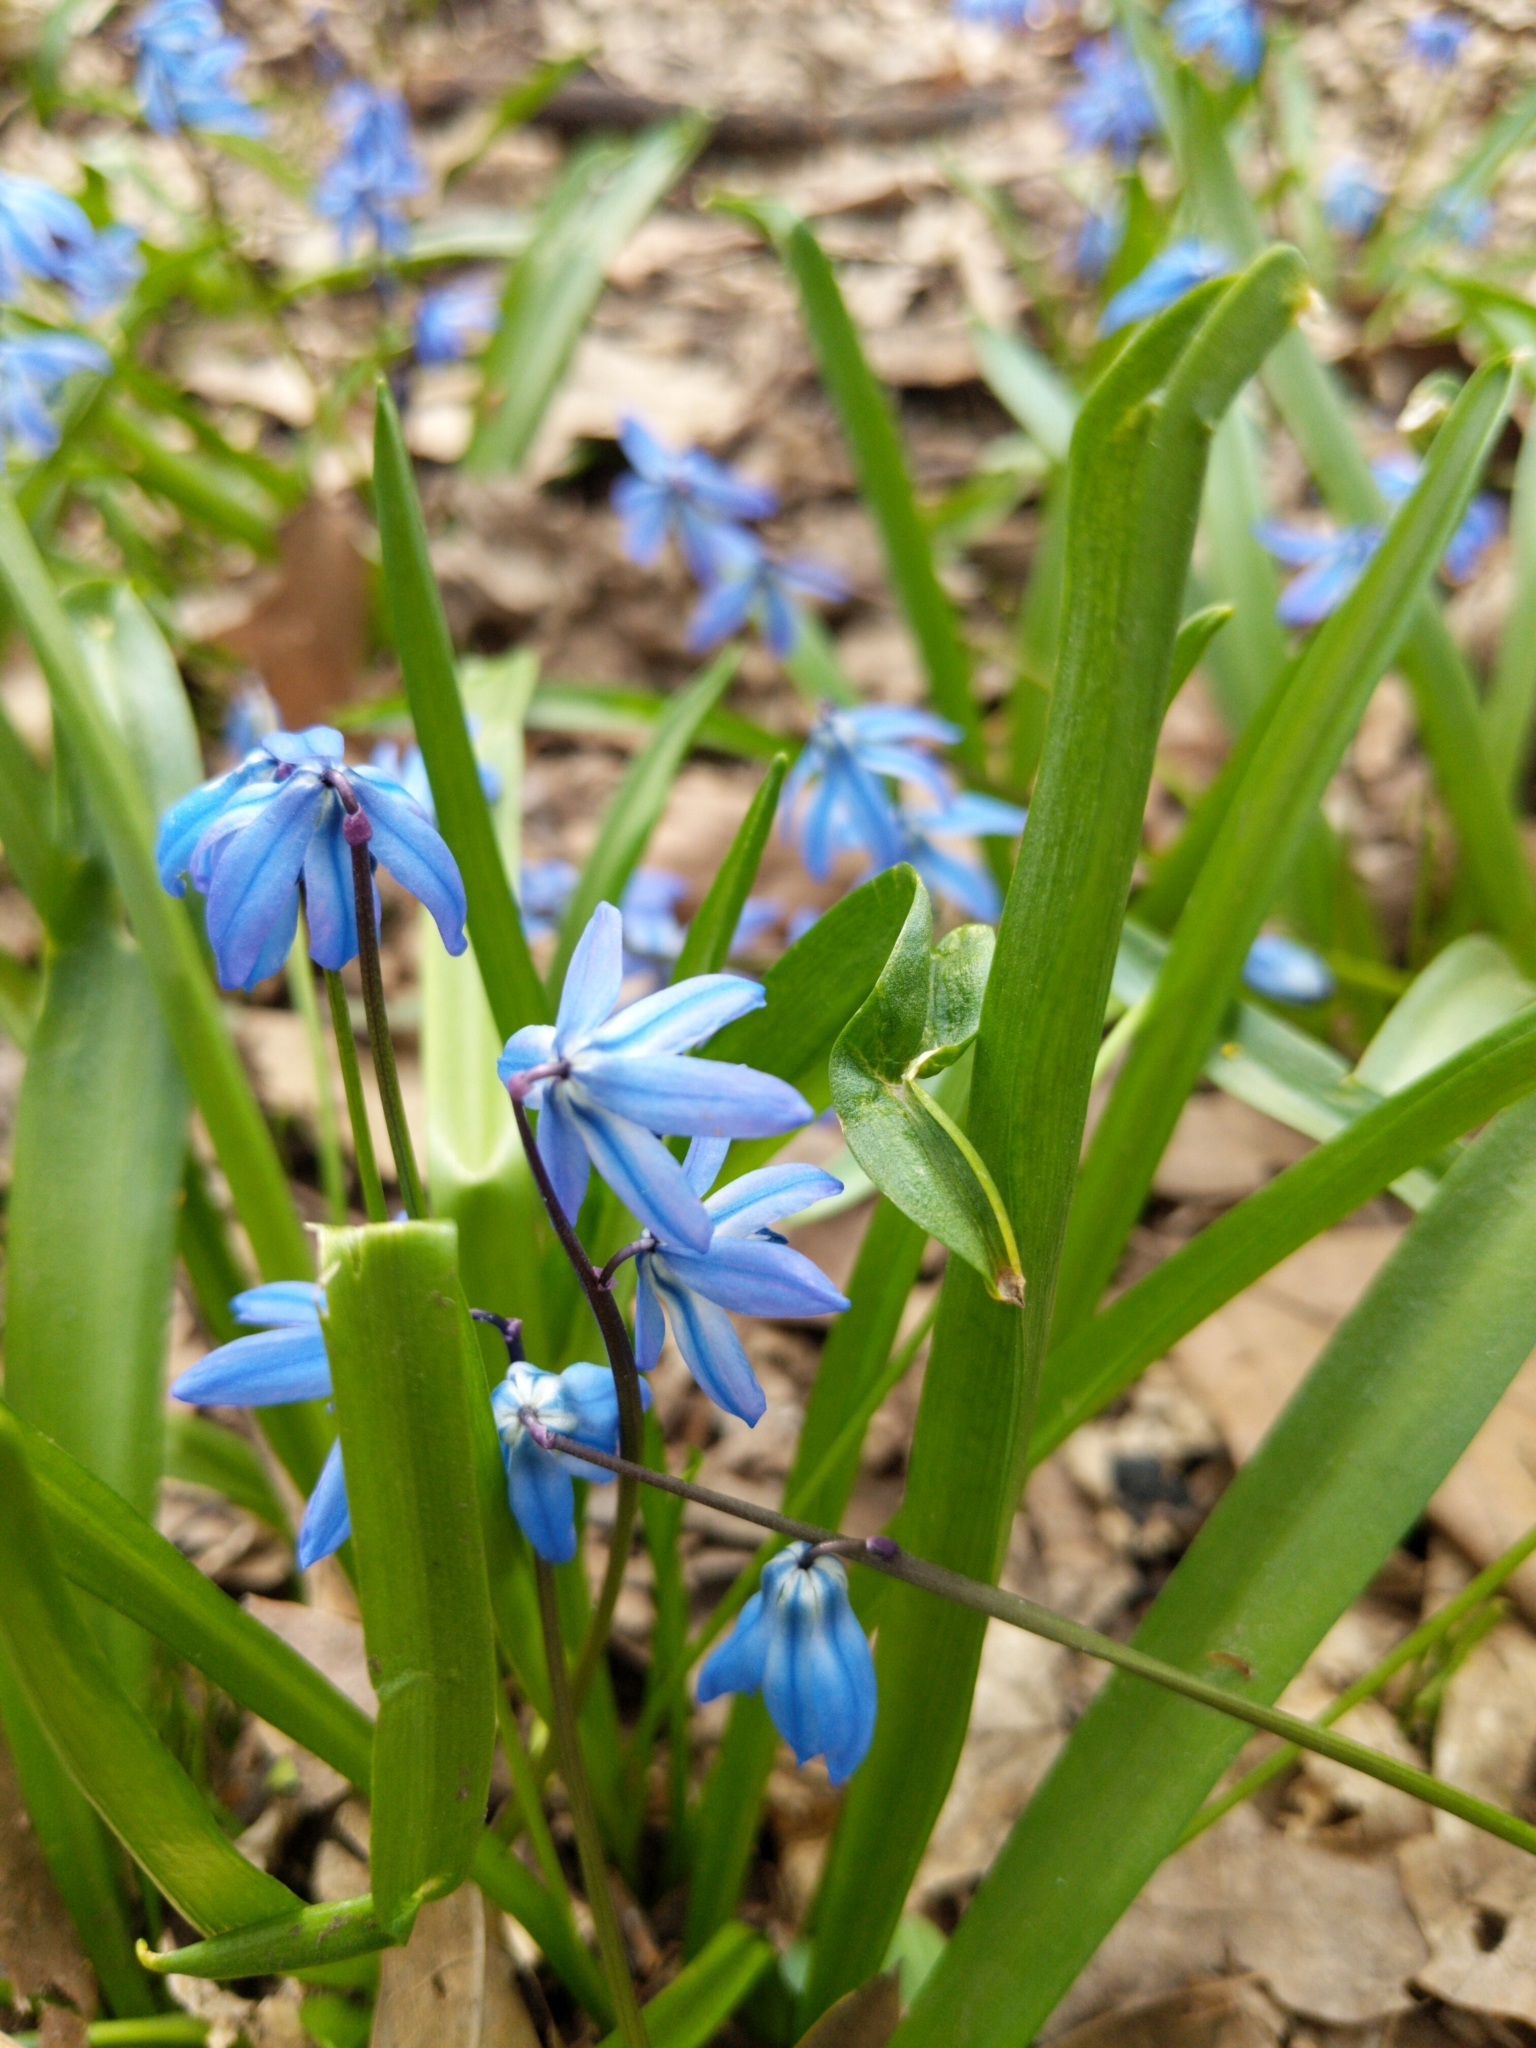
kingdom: Plantae
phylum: Tracheophyta
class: Liliopsida
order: Asparagales
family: Asparagaceae
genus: Scilla
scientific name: Scilla siberica
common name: Siberian squill
